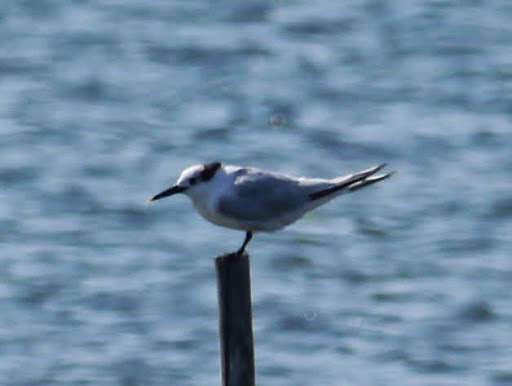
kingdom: Animalia
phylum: Chordata
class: Aves
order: Charadriiformes
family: Laridae
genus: Thalasseus
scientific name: Thalasseus sandvicensis
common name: Sandwich tern
